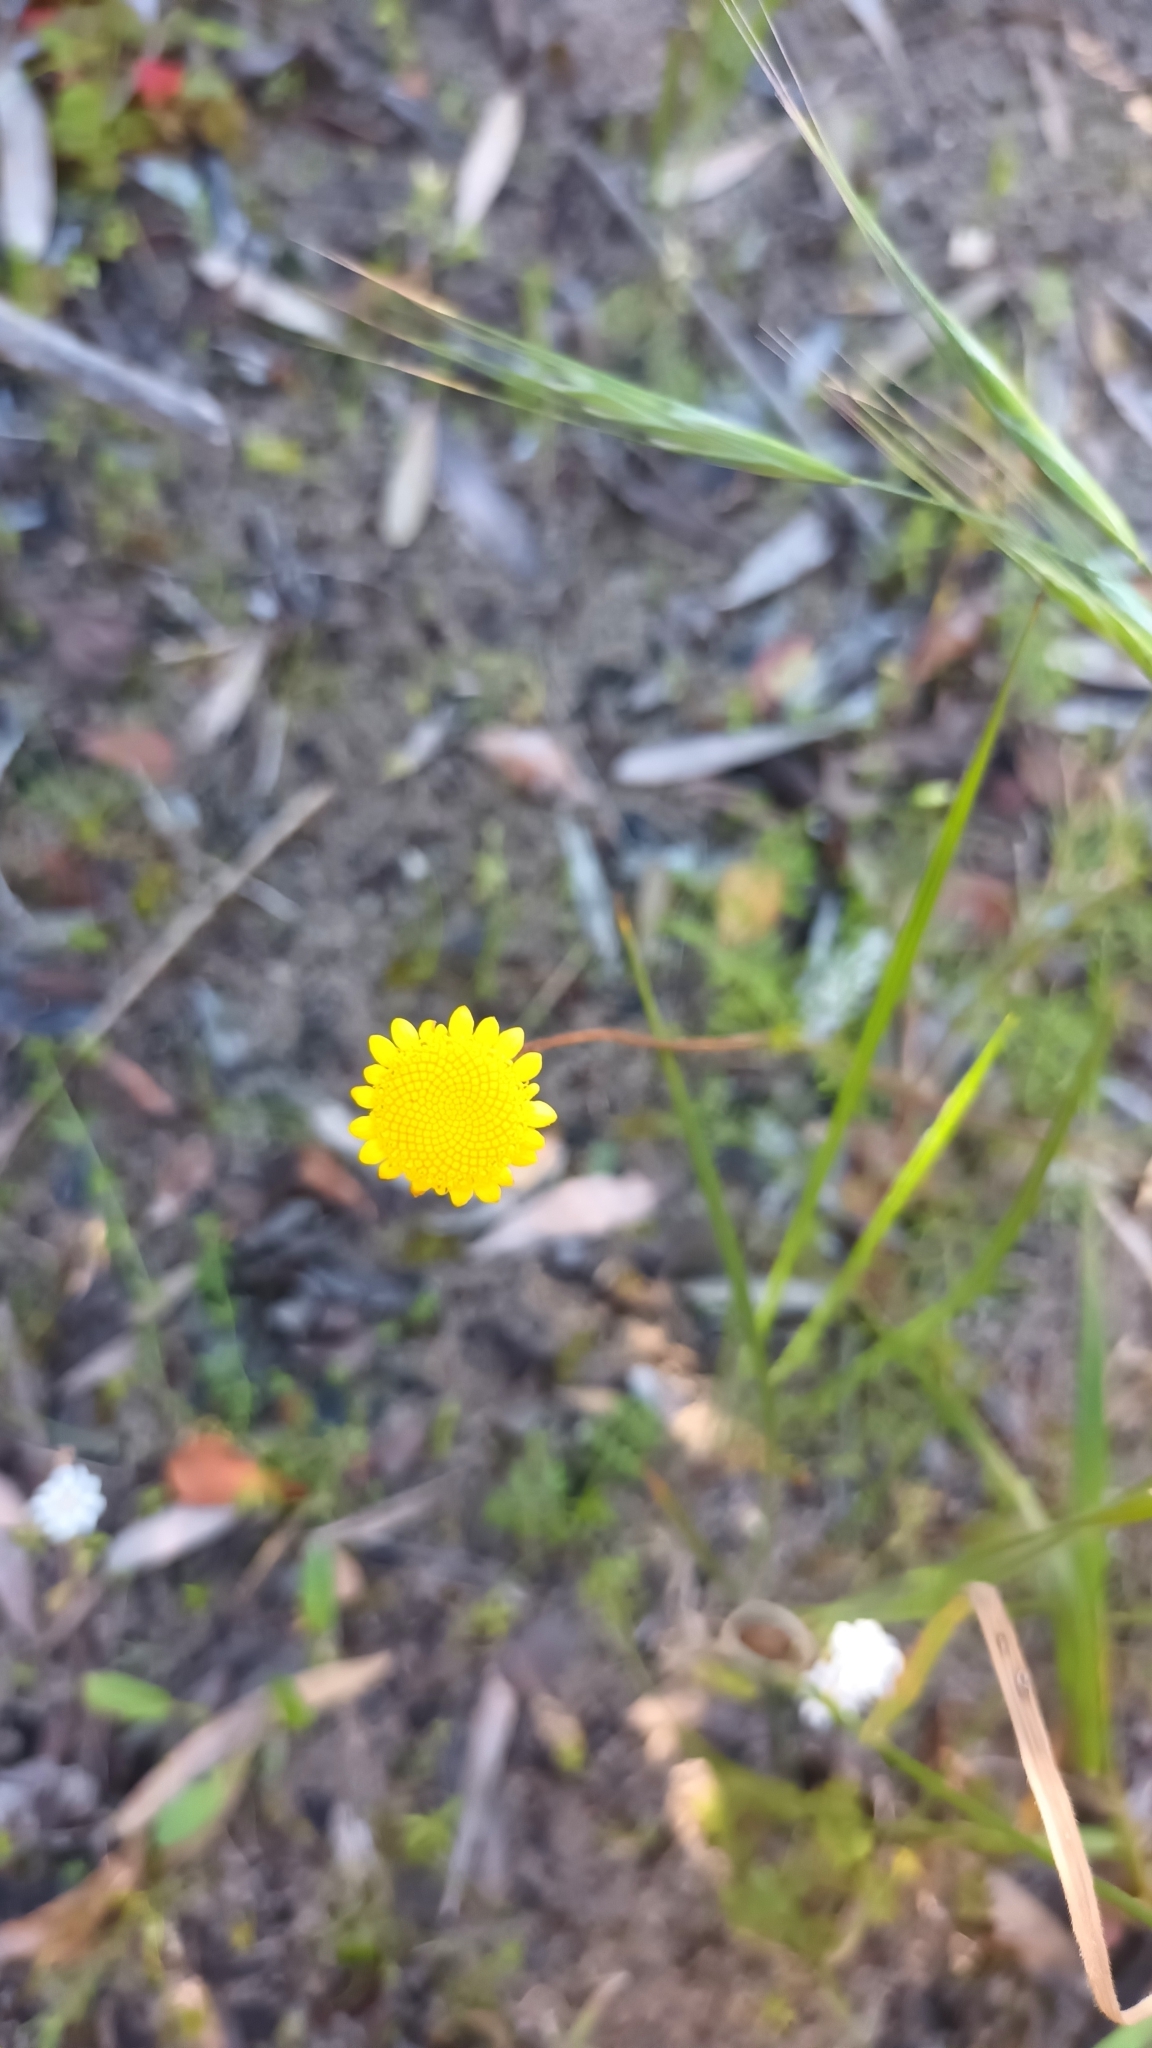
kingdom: Plantae
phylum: Tracheophyta
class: Magnoliopsida
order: Asterales
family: Asteraceae
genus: Cotula
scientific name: Cotula pruinosa
